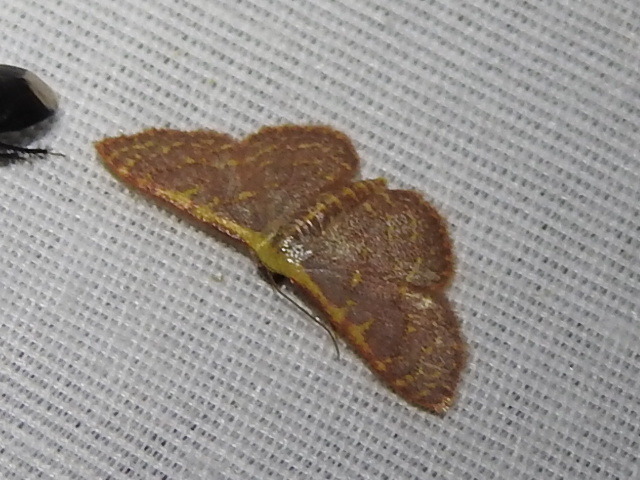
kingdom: Animalia
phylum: Arthropoda
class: Insecta
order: Lepidoptera
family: Geometridae
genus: Leptostales
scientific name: Leptostales pannaria
